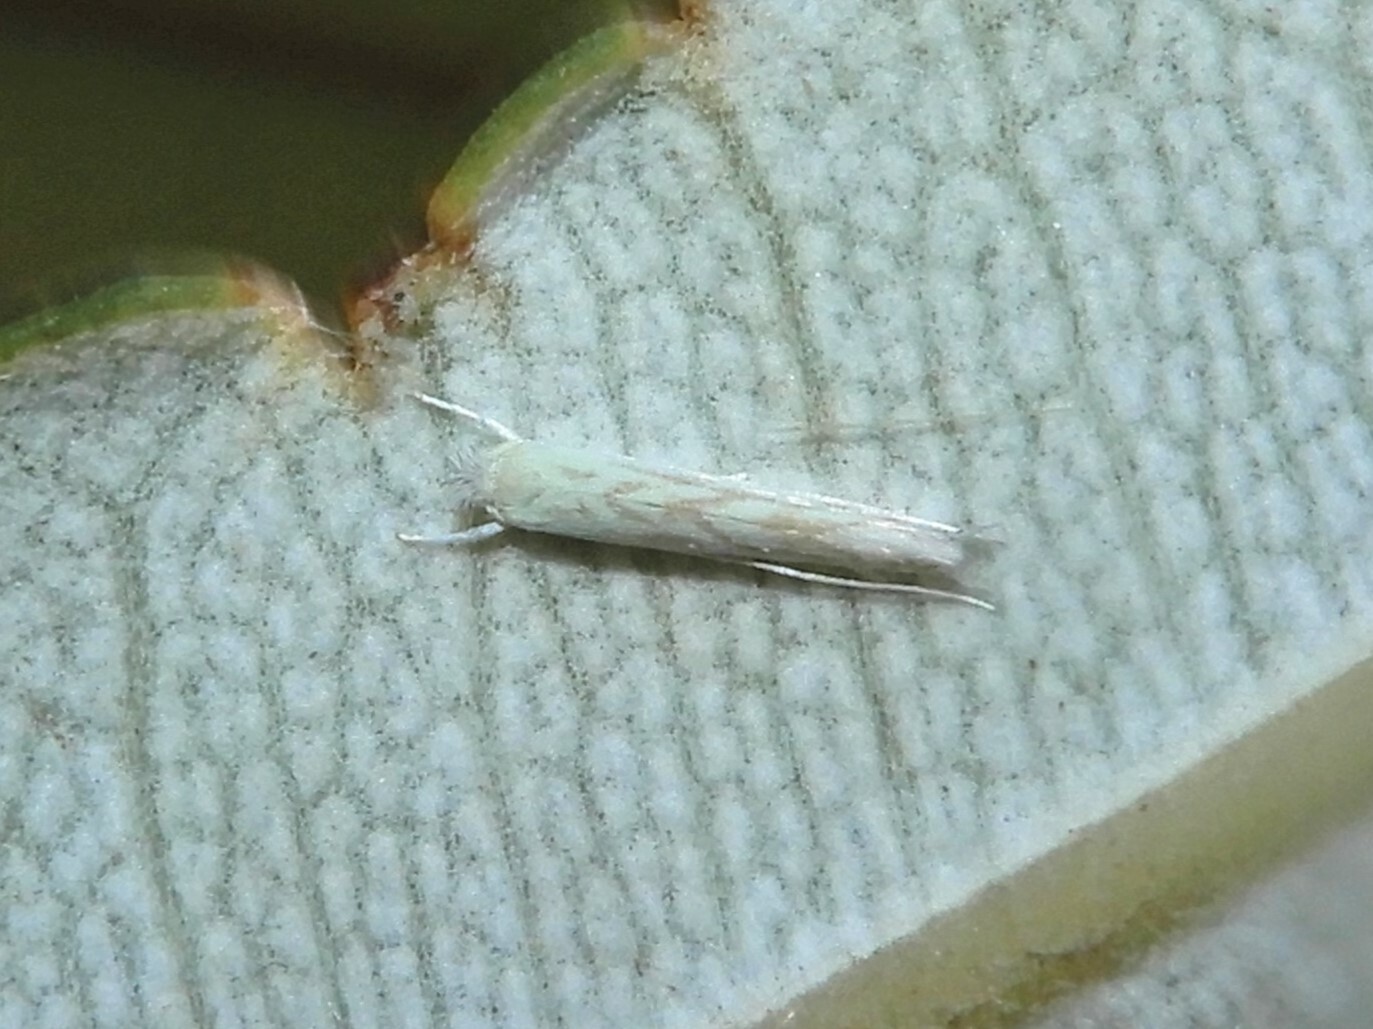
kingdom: Animalia
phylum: Arthropoda
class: Insecta
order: Lepidoptera
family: Lyonetiidae
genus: Stegommata
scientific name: Stegommata sulfuratella
